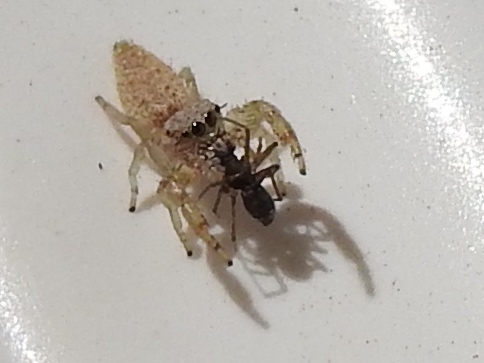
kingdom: Animalia
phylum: Arthropoda
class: Arachnida
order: Araneae
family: Salticidae
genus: Hentzia
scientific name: Hentzia
